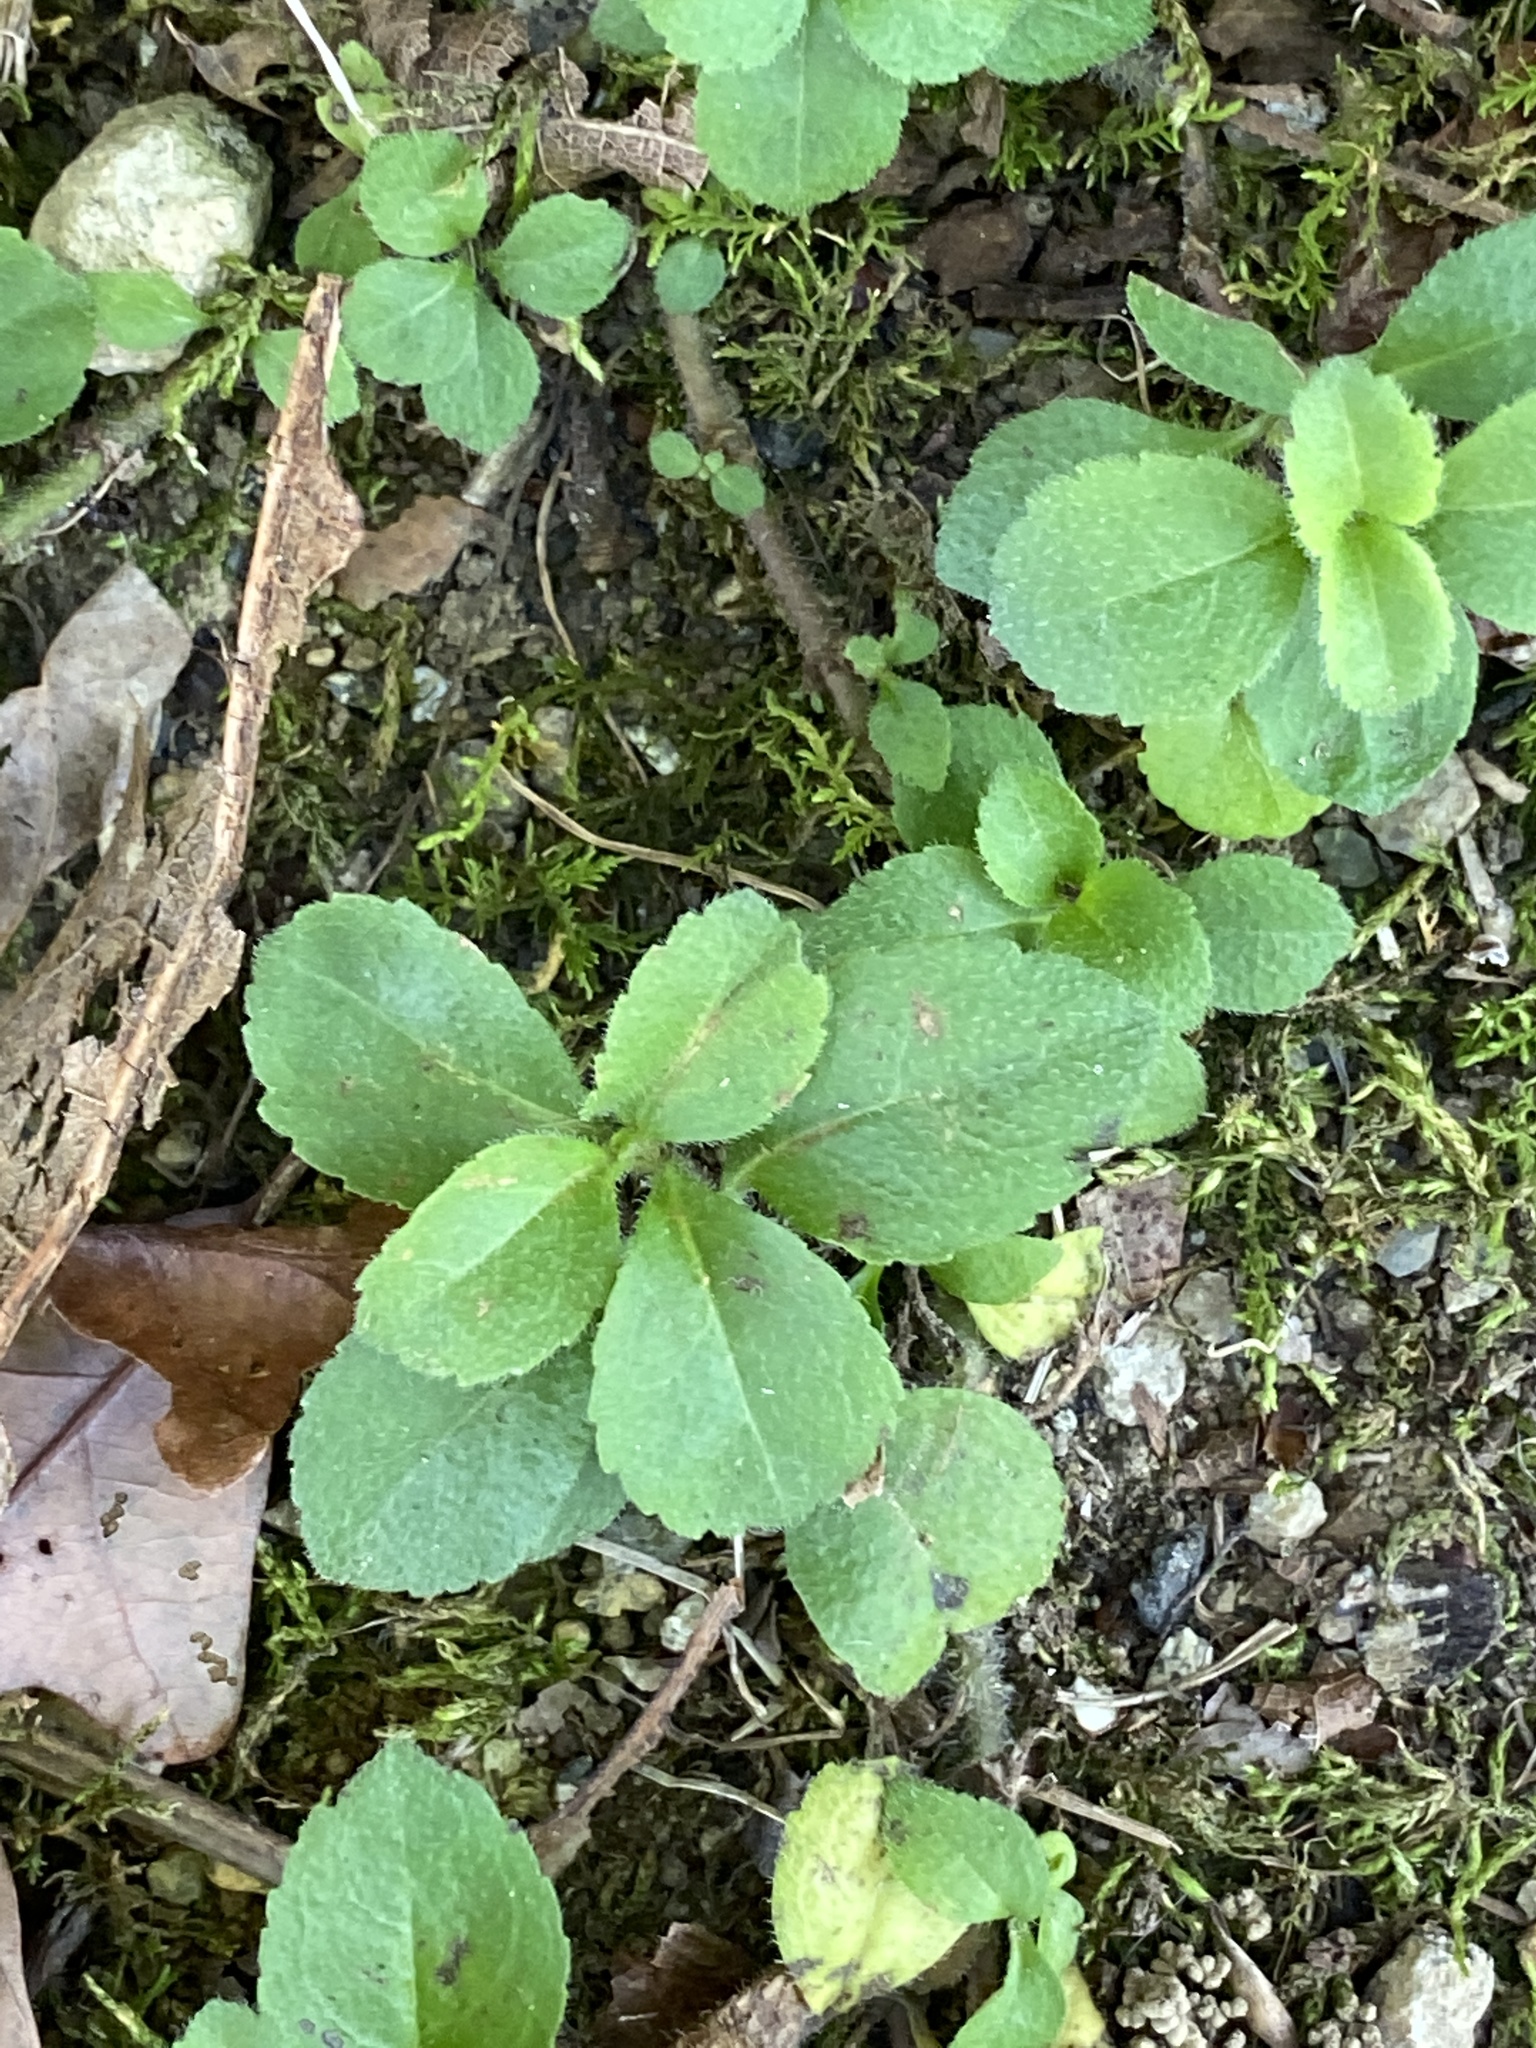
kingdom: Plantae
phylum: Tracheophyta
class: Magnoliopsida
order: Lamiales
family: Plantaginaceae
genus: Veronica
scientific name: Veronica officinalis
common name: Common speedwell
